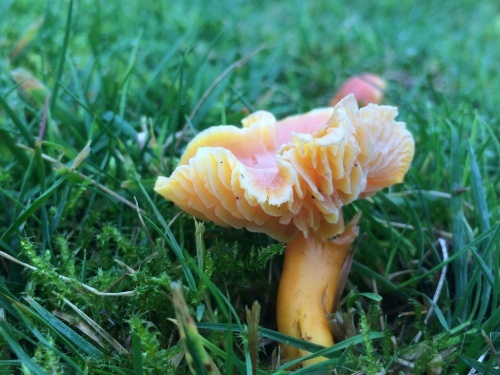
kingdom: Fungi
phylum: Basidiomycota
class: Agaricomycetes
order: Agaricales
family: Hygrophoraceae
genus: Hygrocybe
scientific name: Hygrocybe quieta
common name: Oily waxcap
